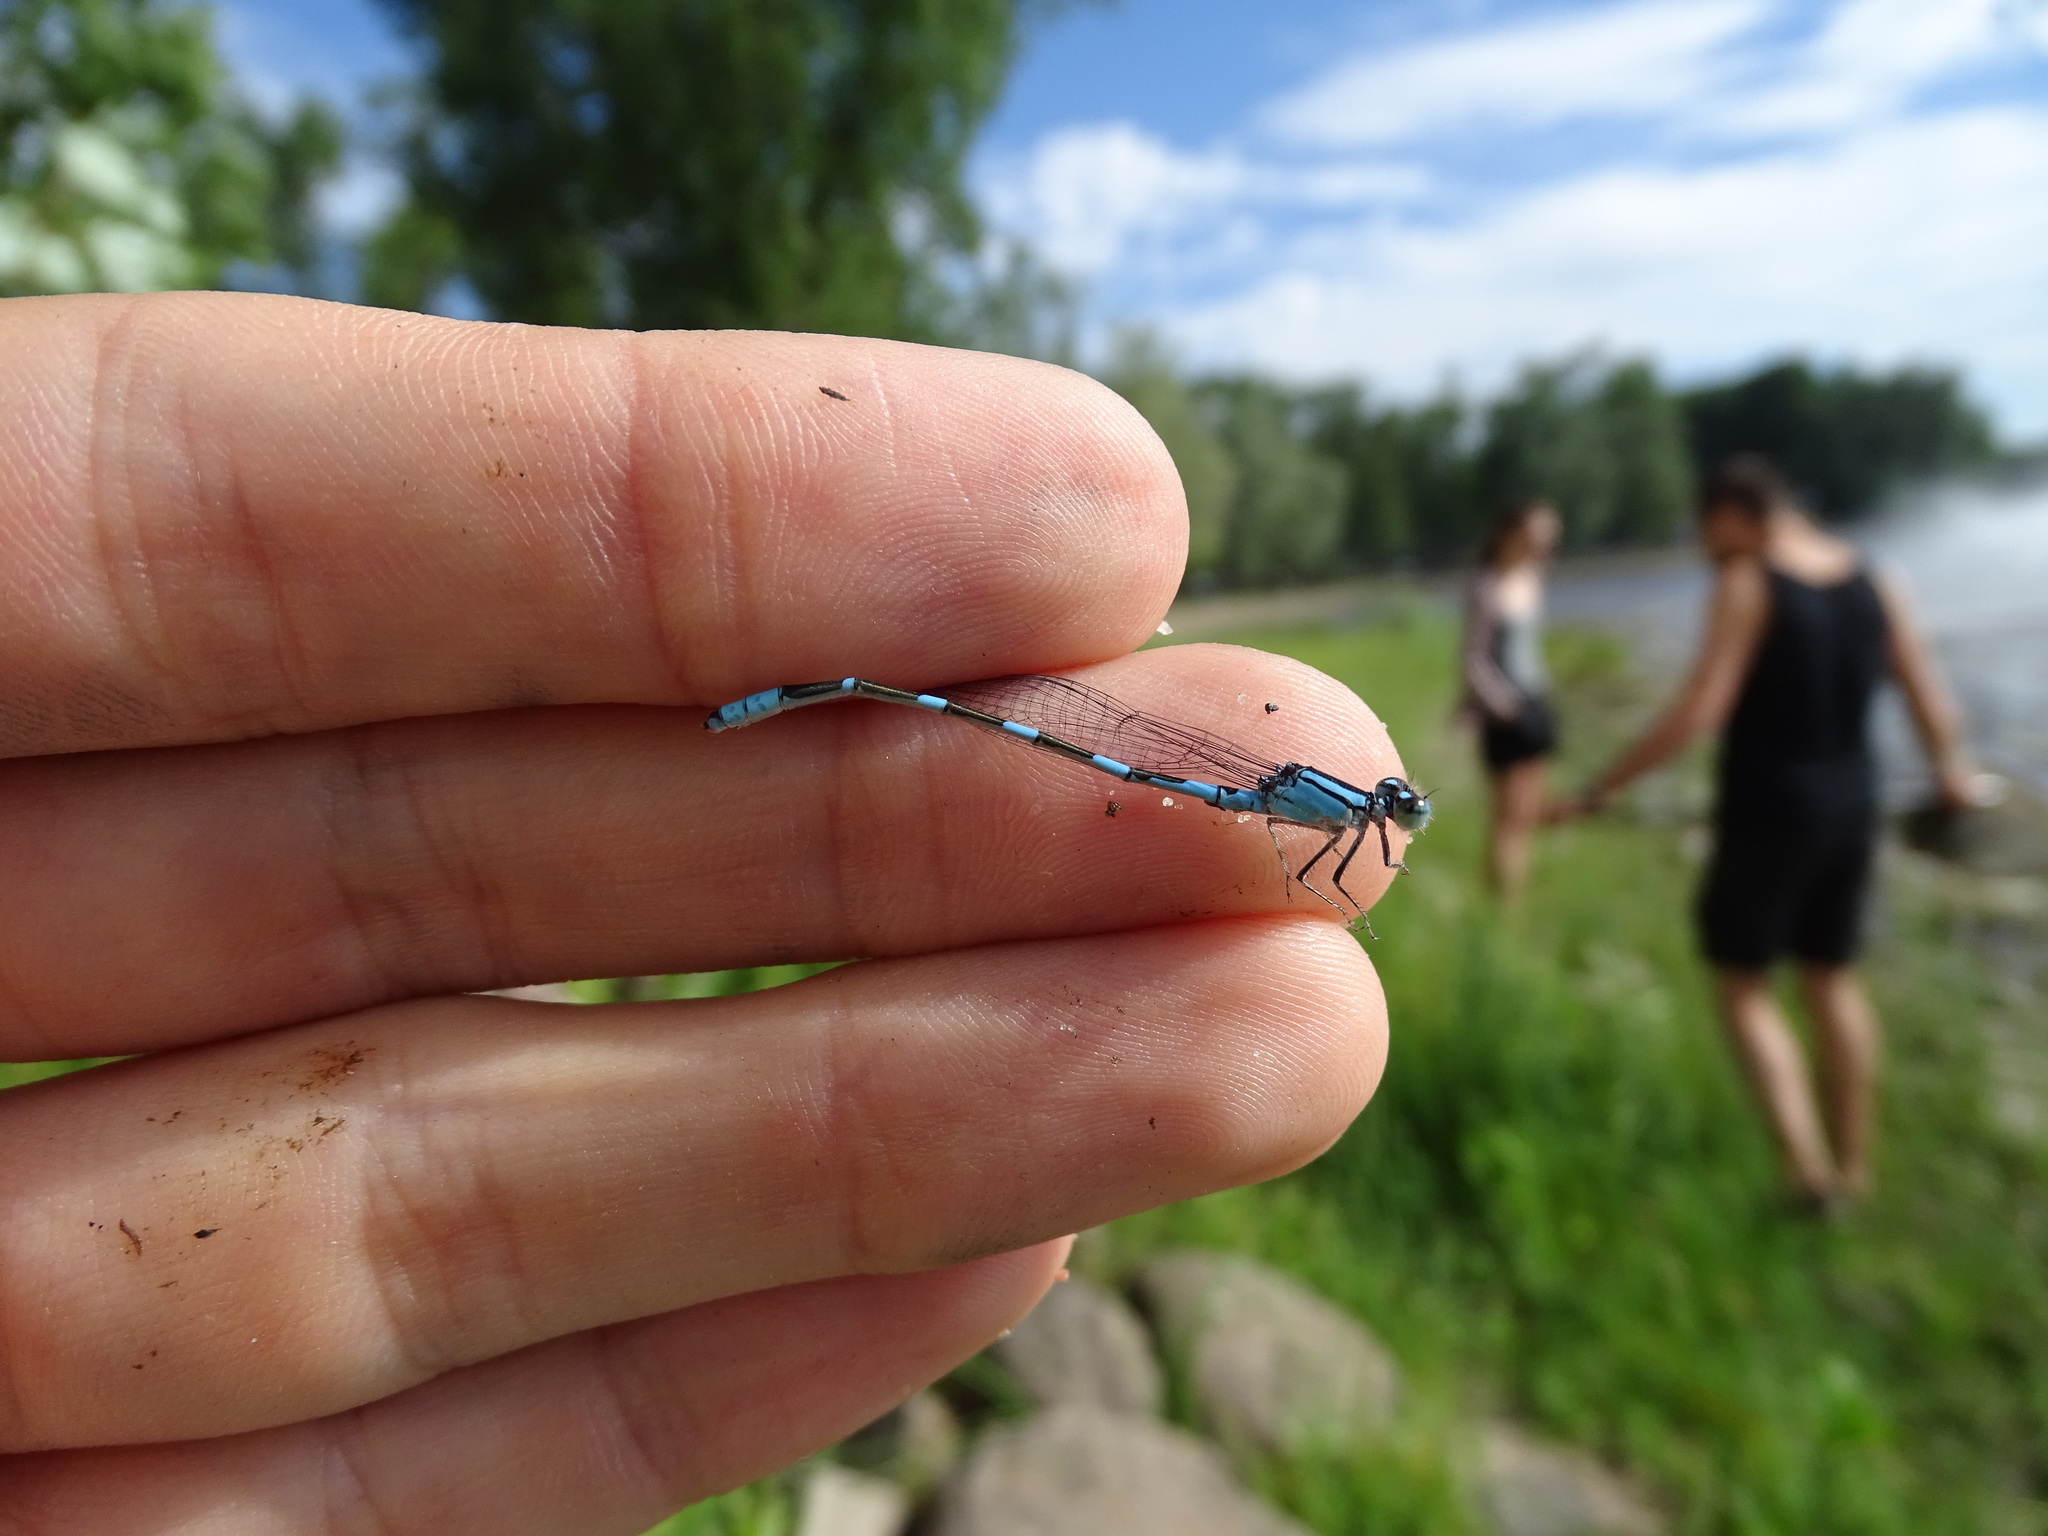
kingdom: Animalia
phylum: Arthropoda
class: Insecta
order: Odonata
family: Coenagrionidae
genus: Enallagma
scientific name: Enallagma carunculatum
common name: Tule bluet
